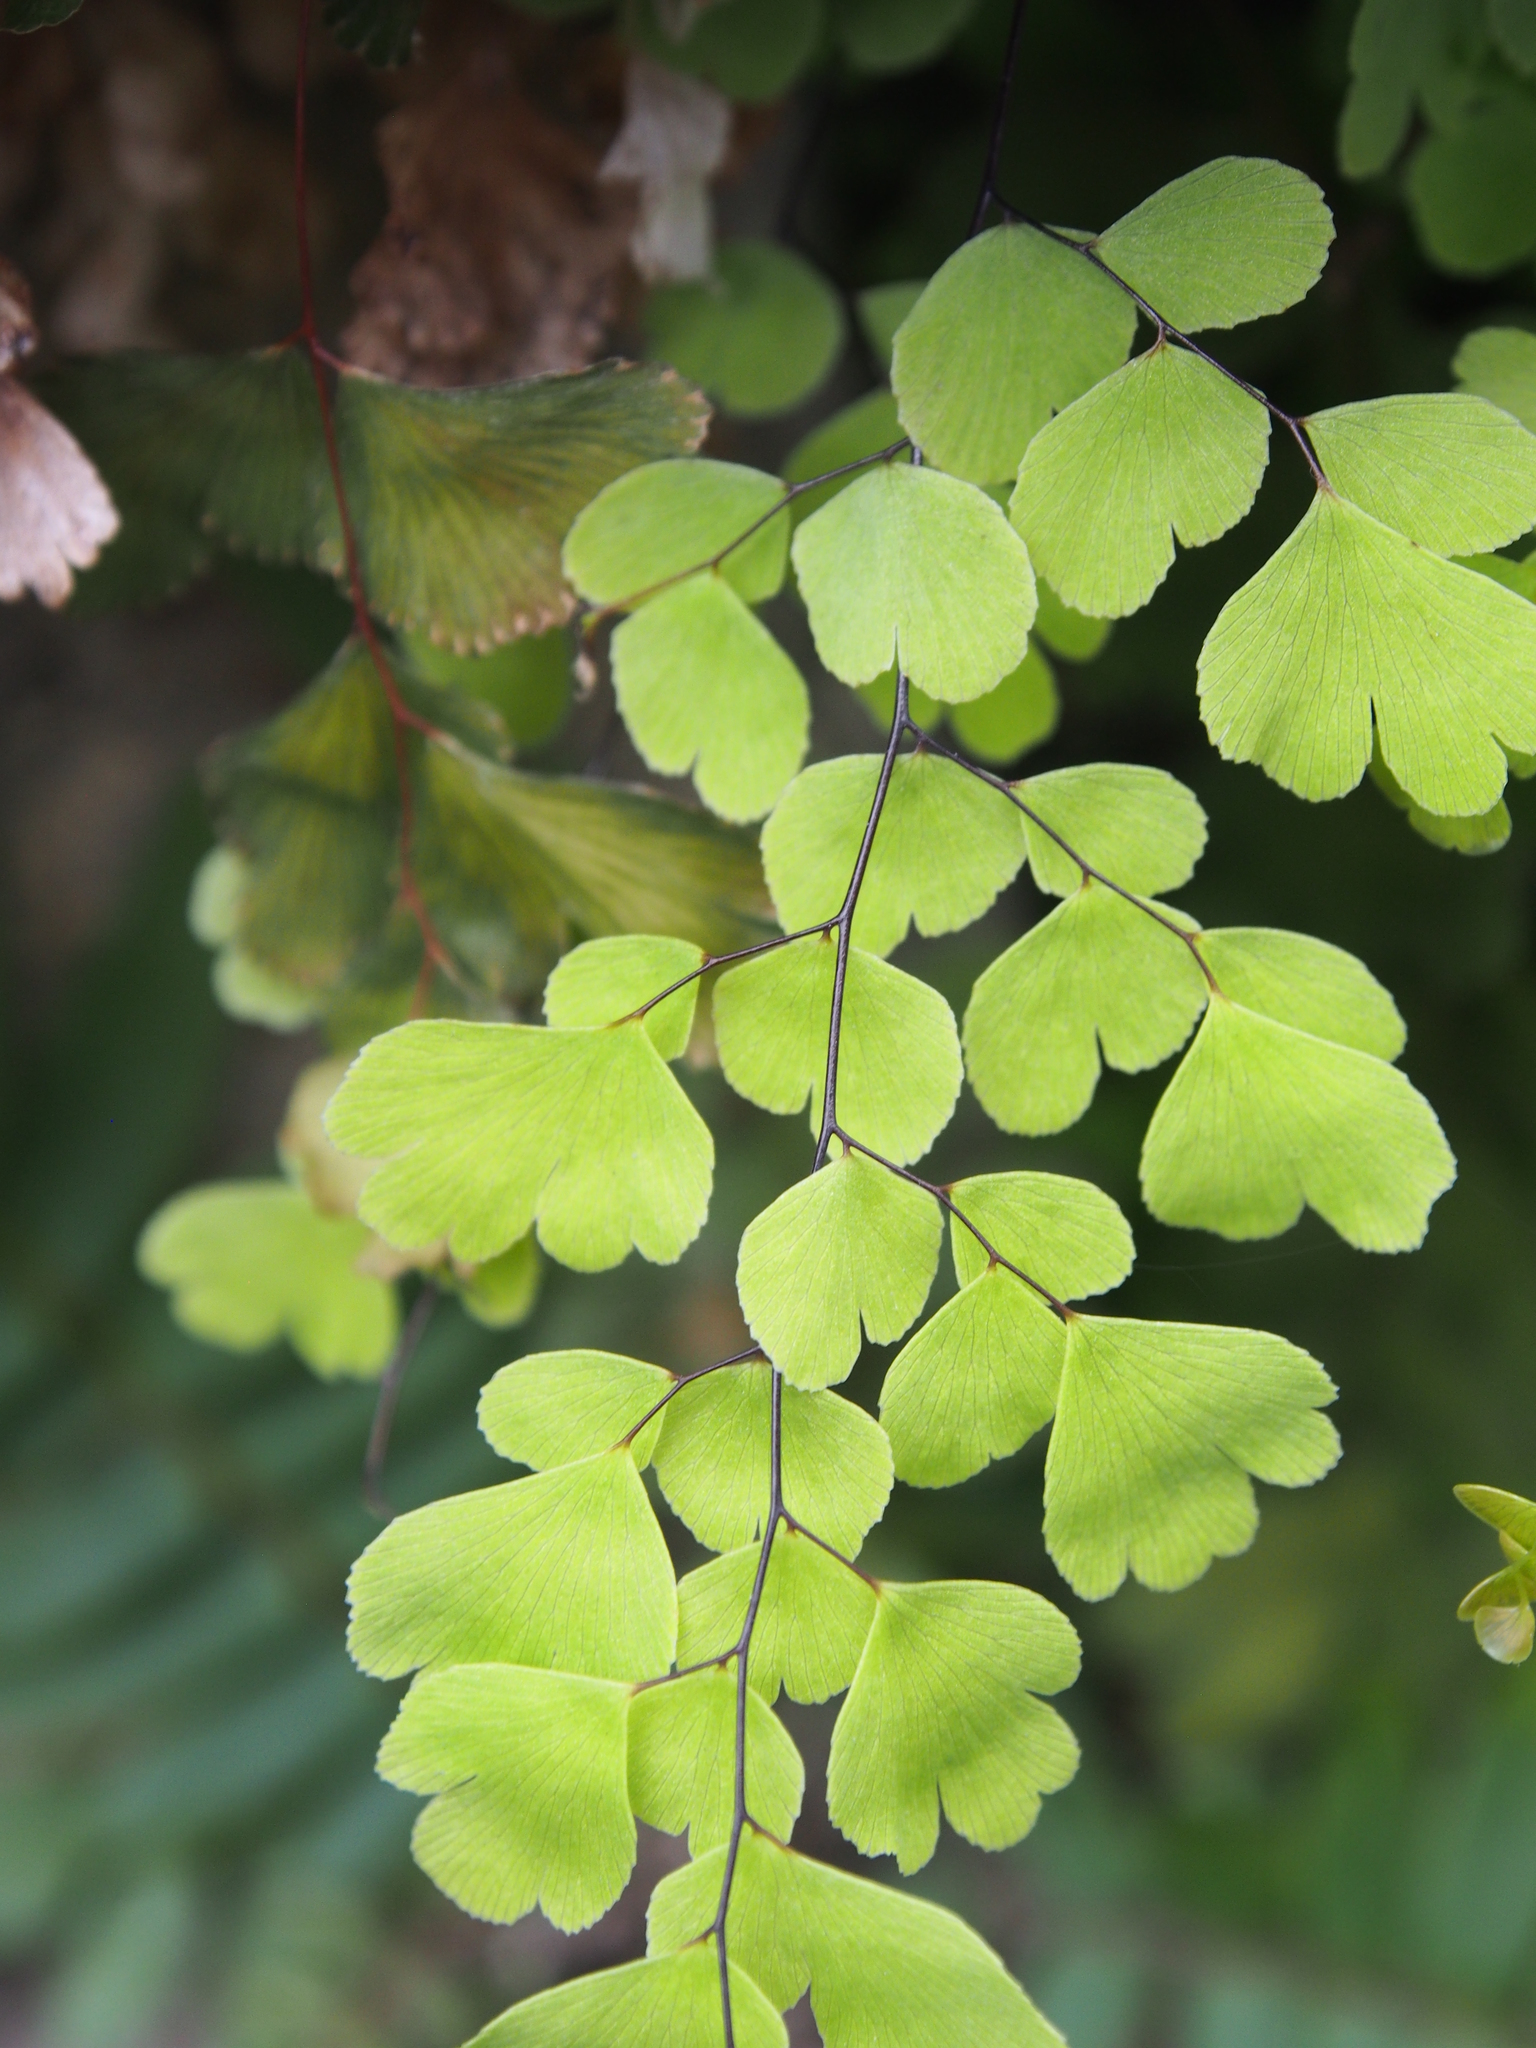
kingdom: Plantae
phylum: Tracheophyta
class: Polypodiopsida
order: Polypodiales
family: Pteridaceae
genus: Adiantum
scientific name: Adiantum concinnum
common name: Brittle maidenhair fern
